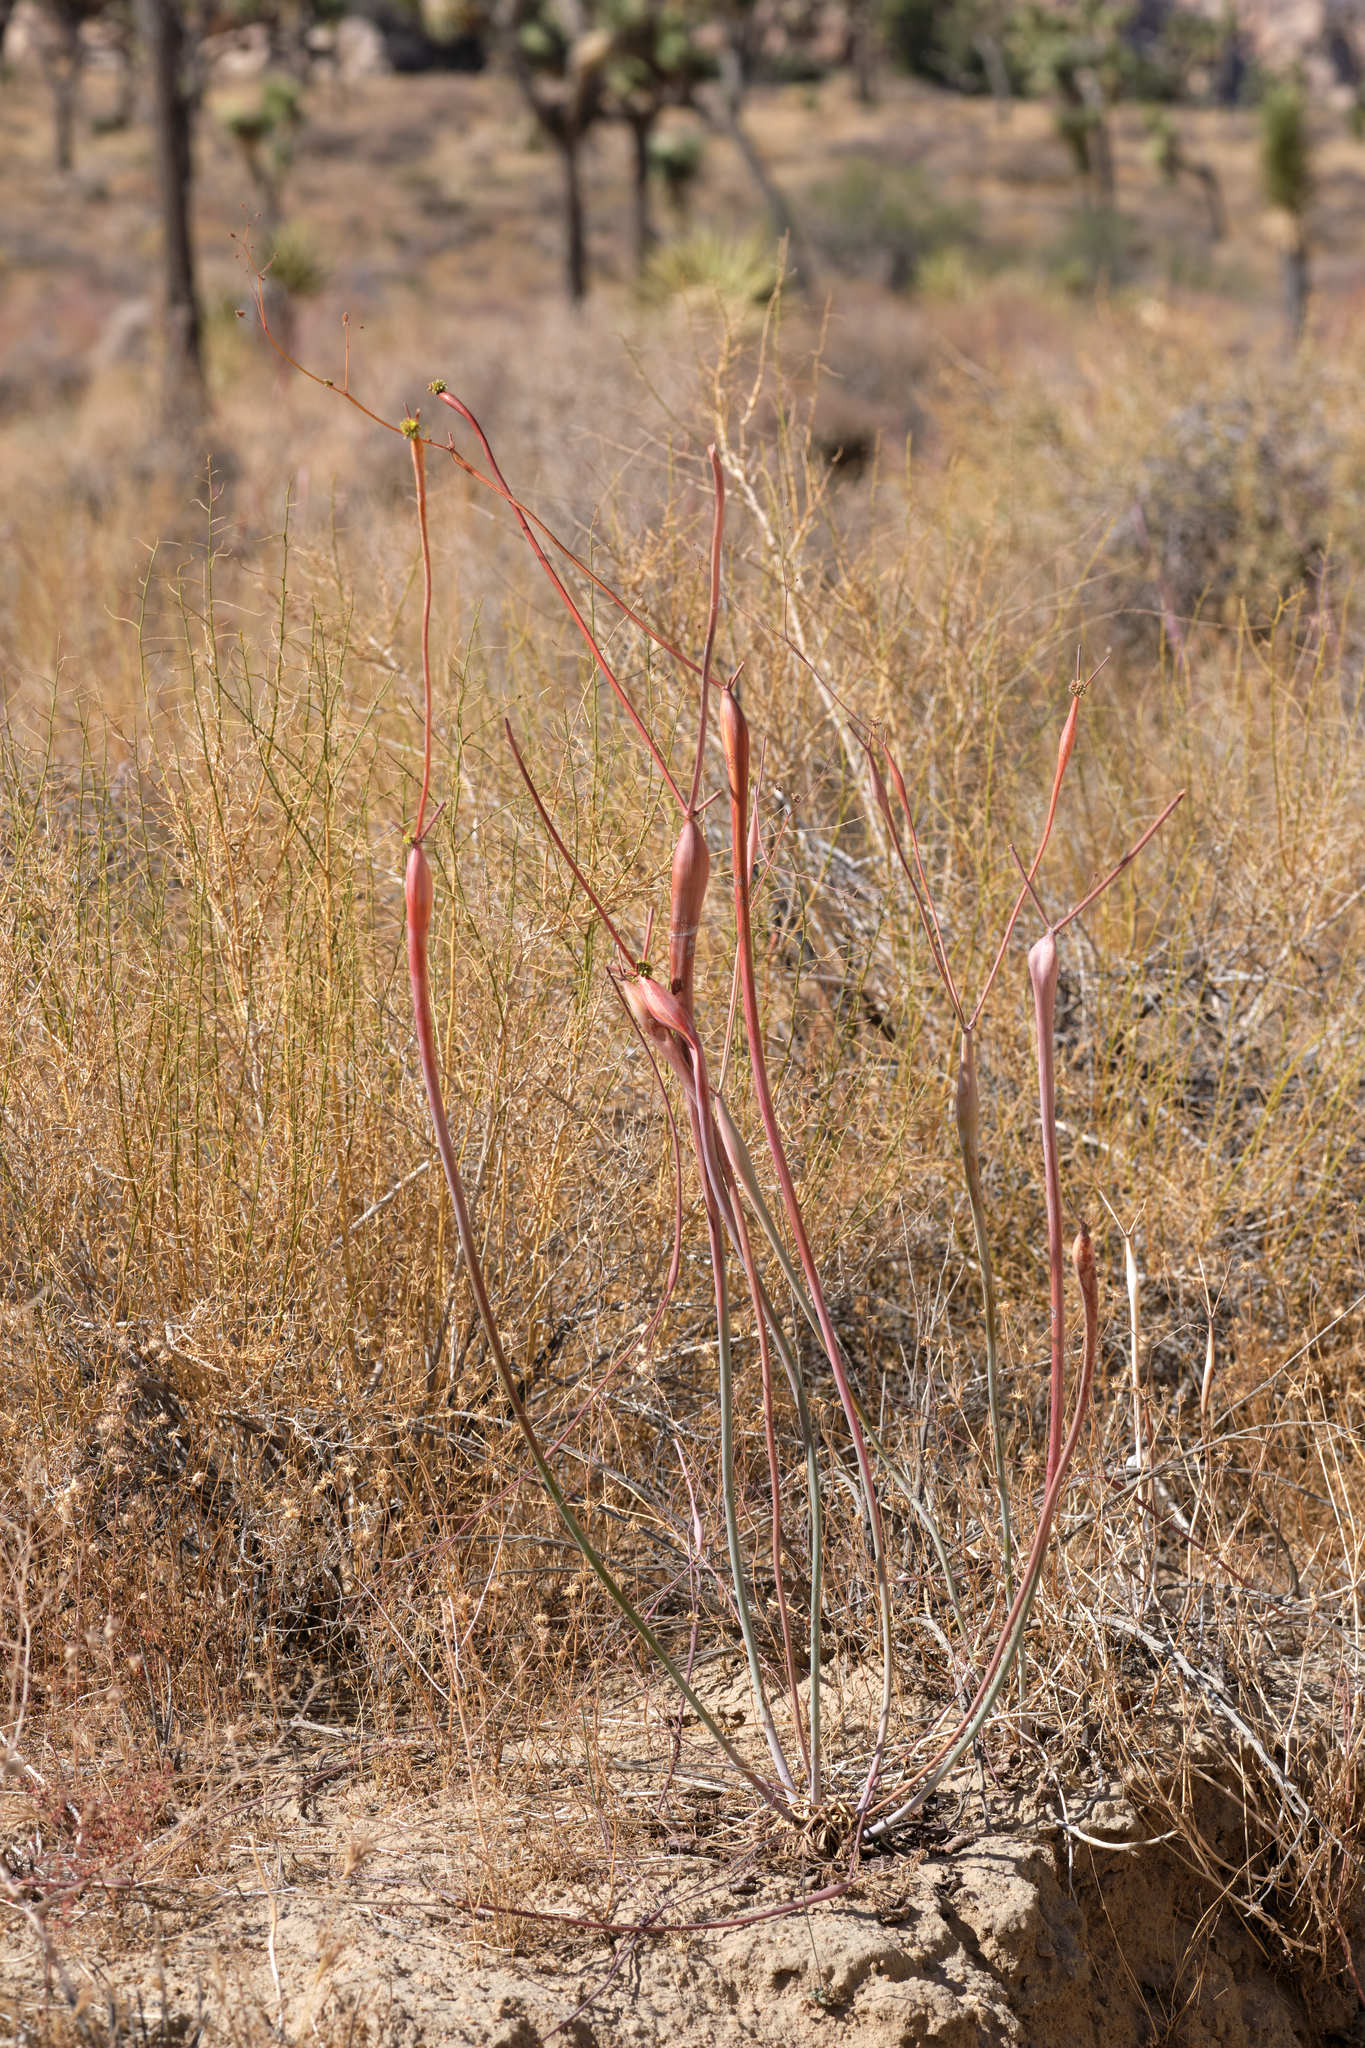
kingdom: Plantae
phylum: Tracheophyta
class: Magnoliopsida
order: Caryophyllales
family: Polygonaceae
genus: Eriogonum
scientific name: Eriogonum inflatum
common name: Desert trumpet
